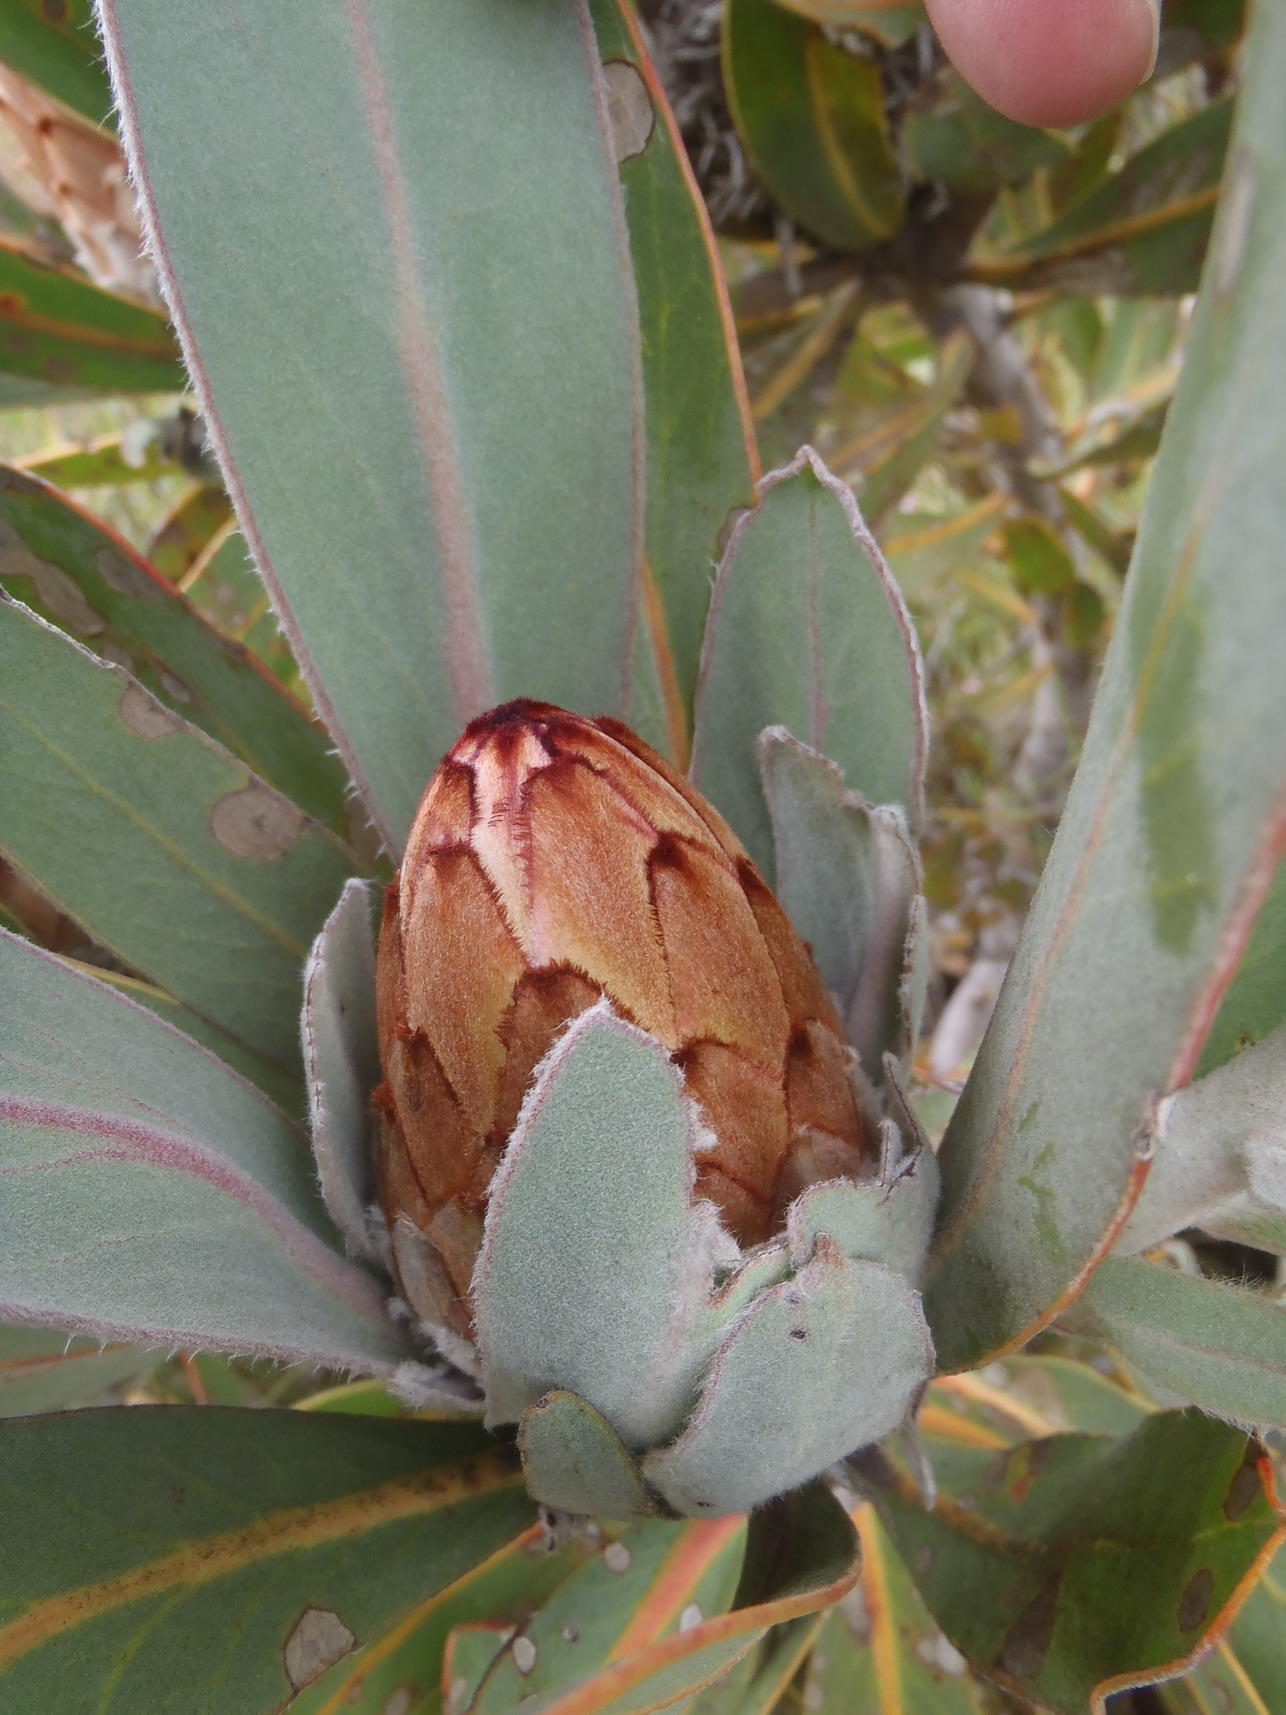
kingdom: Plantae
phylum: Tracheophyta
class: Magnoliopsida
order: Proteales
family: Proteaceae
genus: Protea
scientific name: Protea lorifolia
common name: Strap-leaved protea
